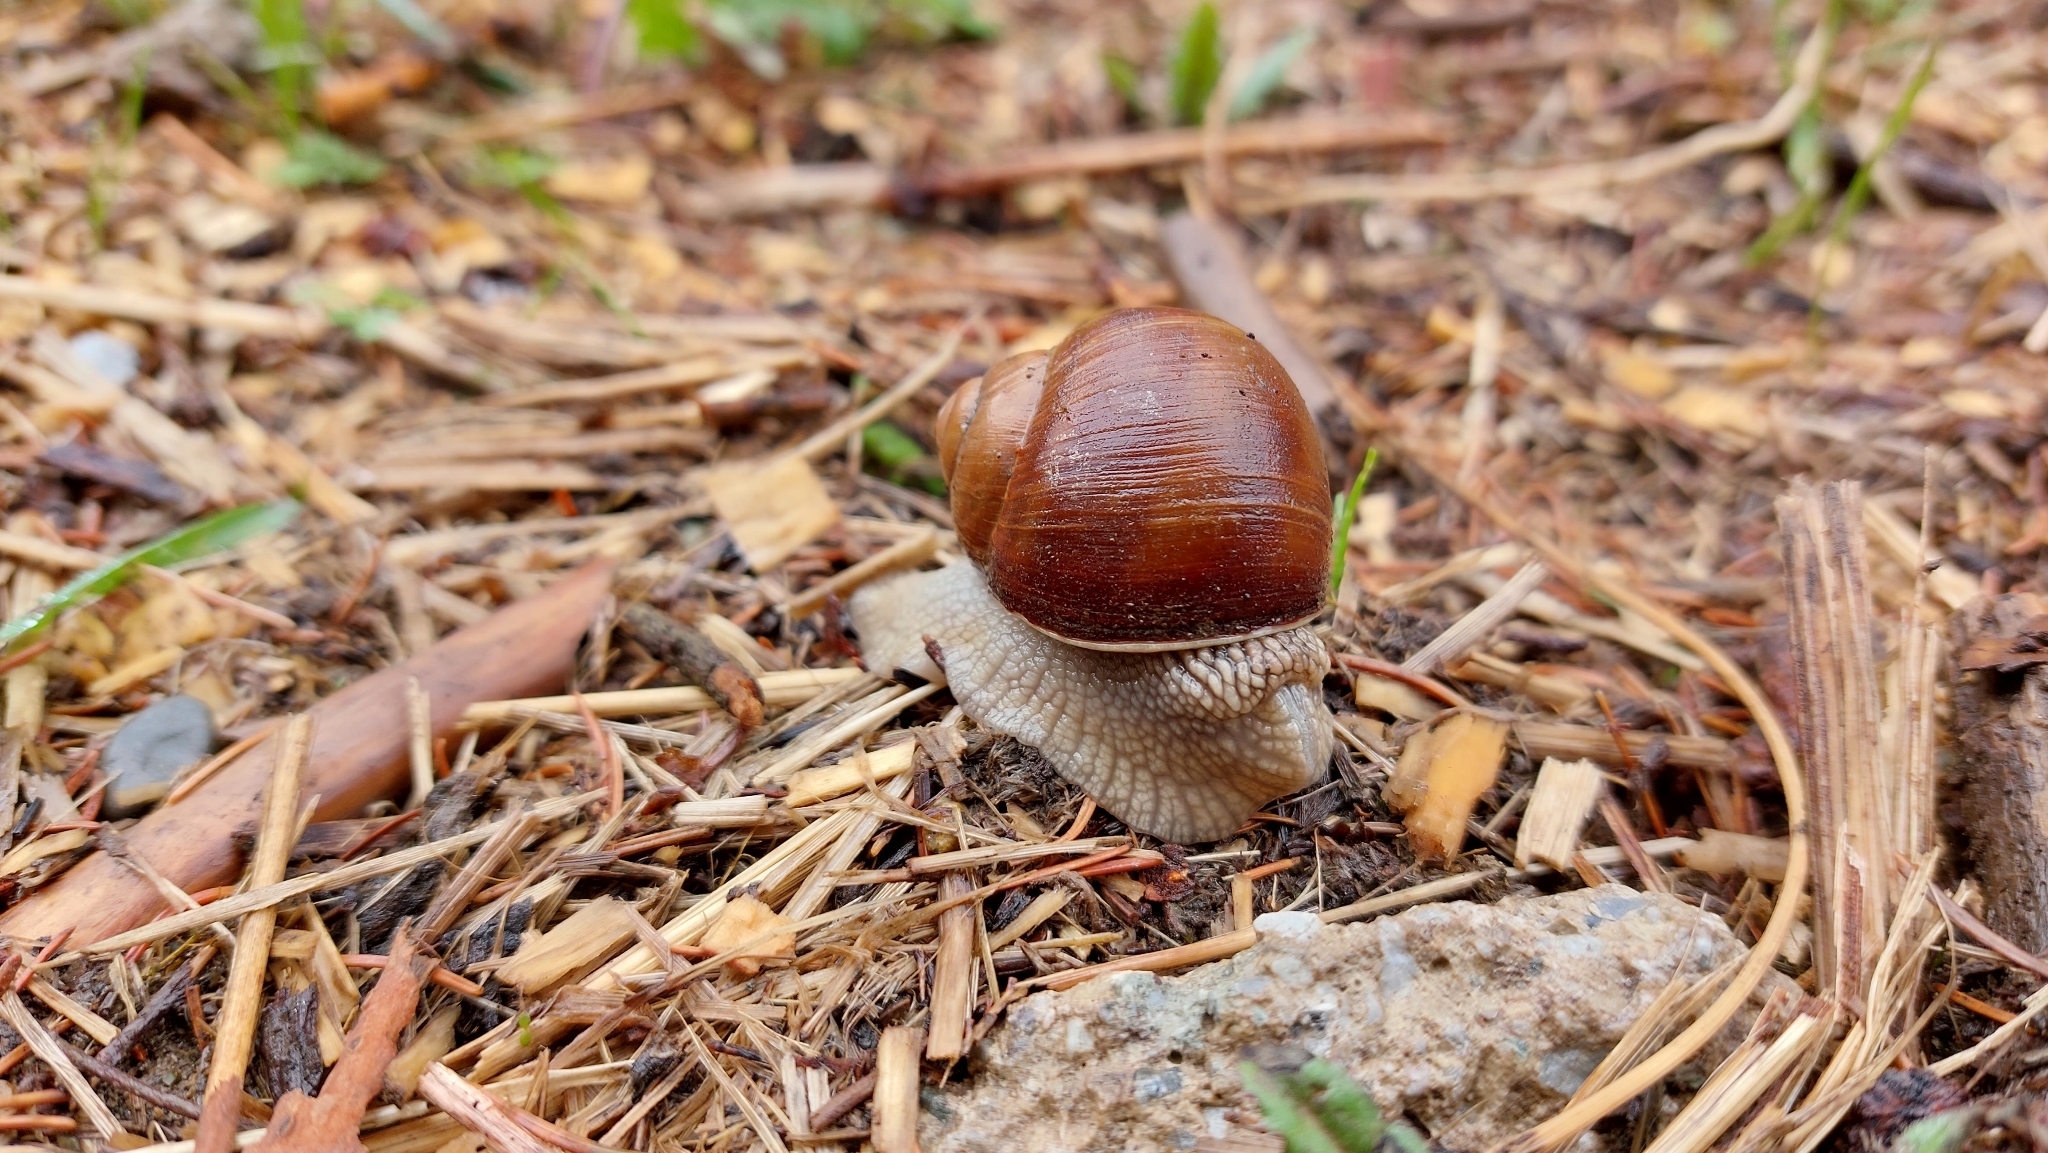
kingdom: Animalia
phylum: Mollusca
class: Gastropoda
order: Stylommatophora
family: Helicidae
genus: Helix
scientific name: Helix pomatia
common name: Roman snail
